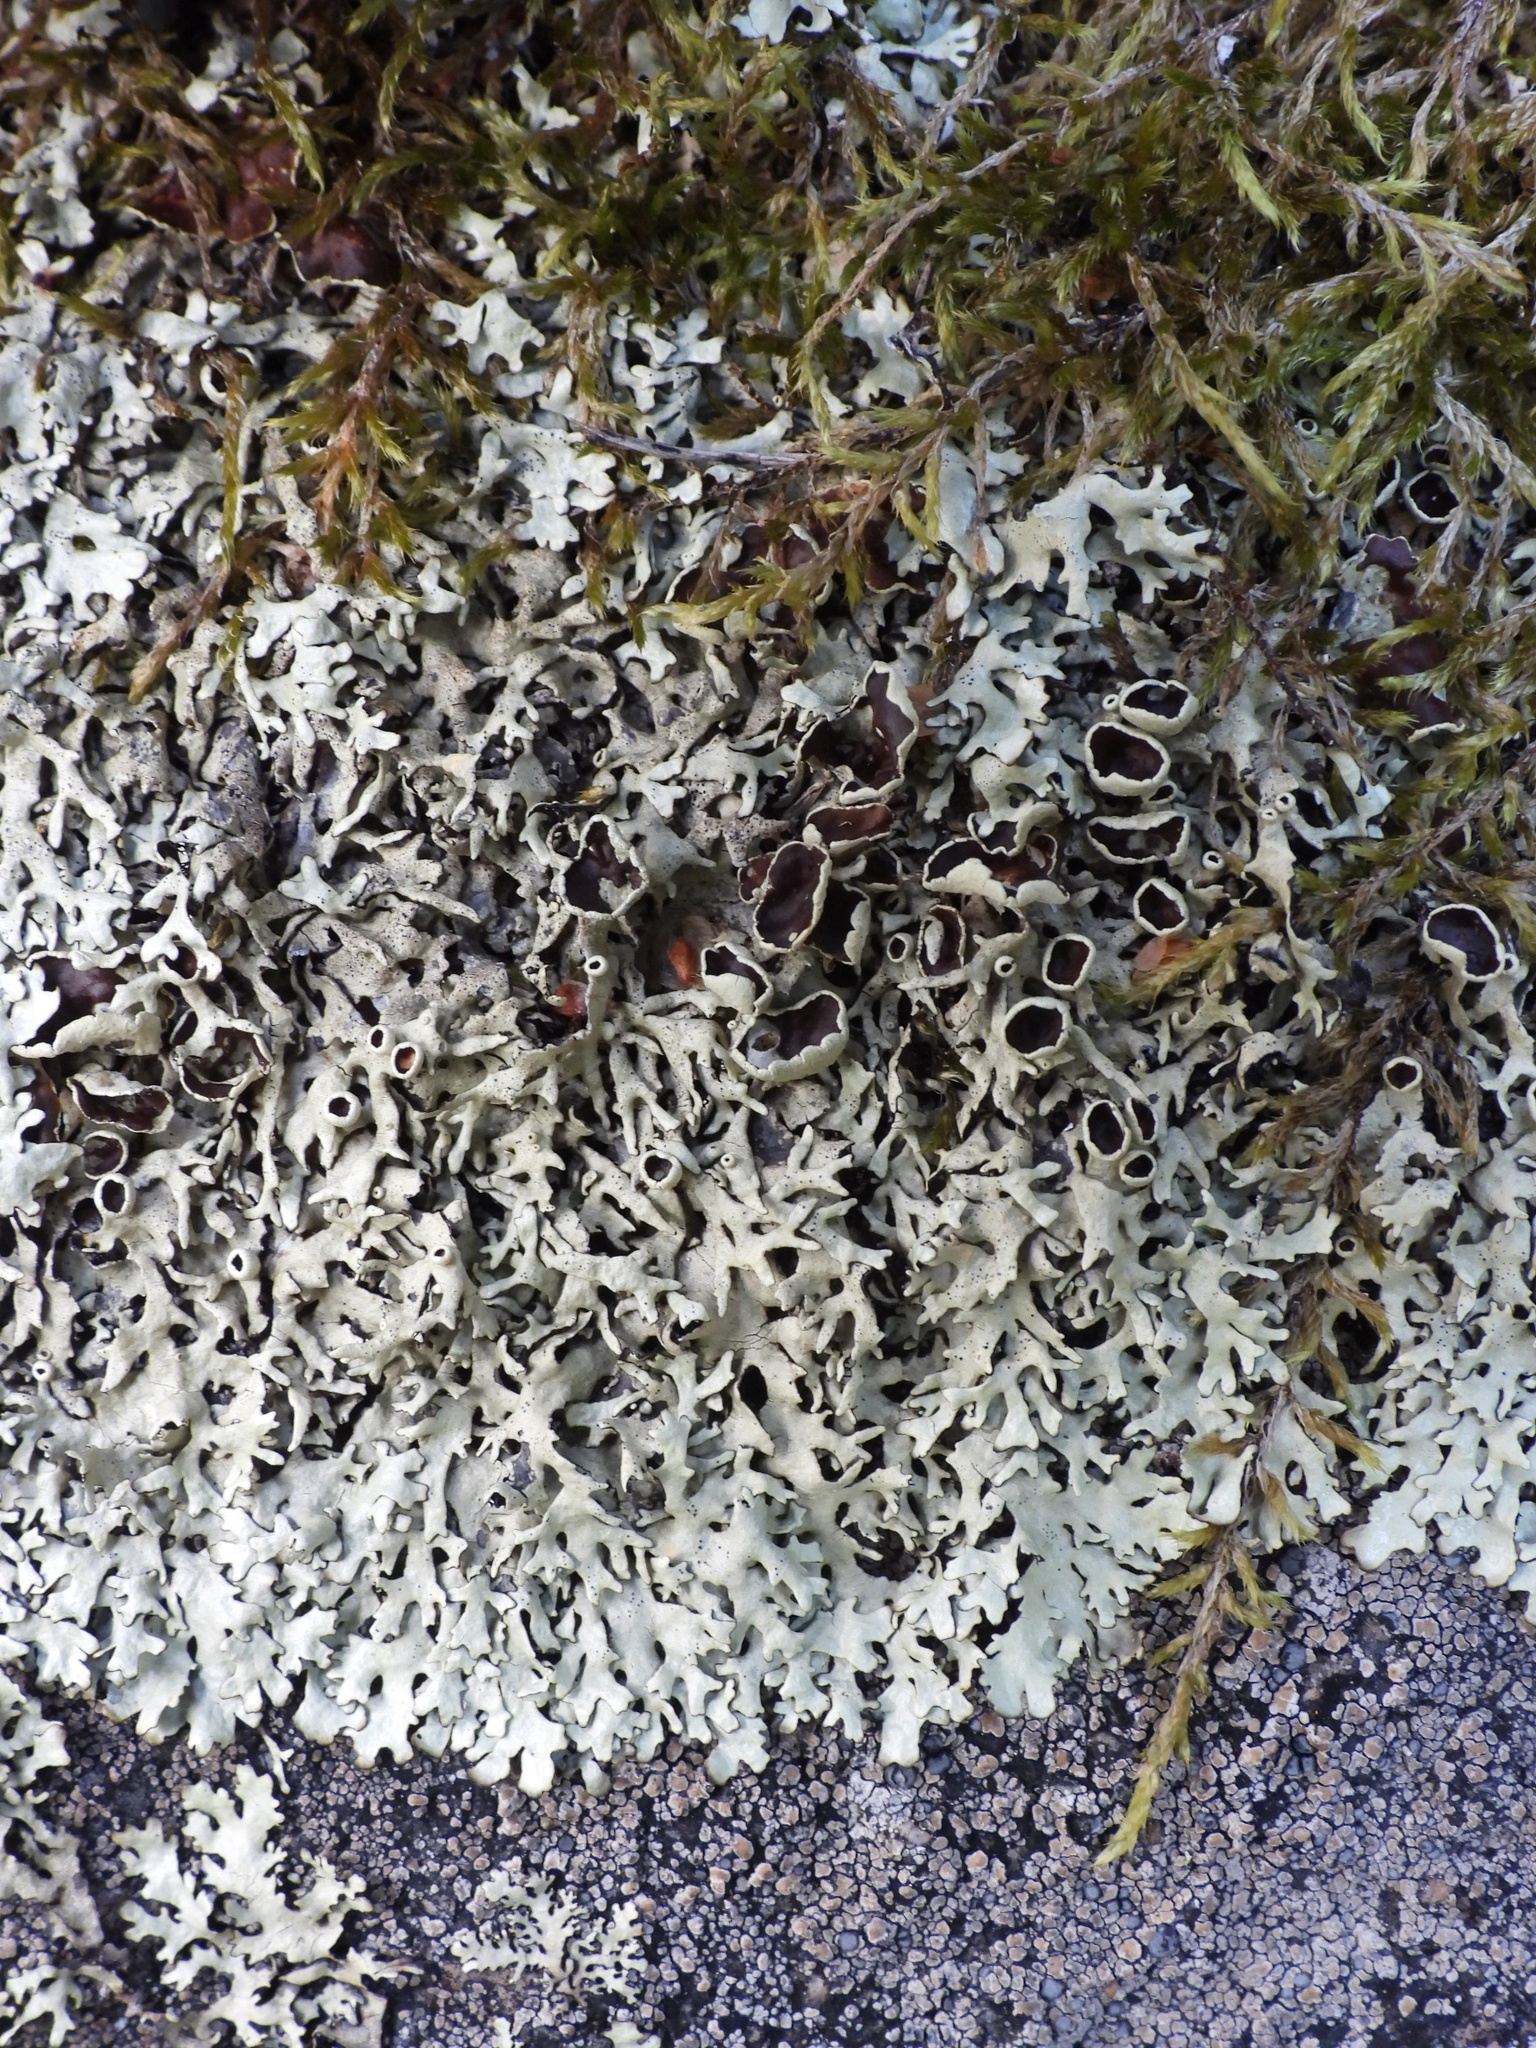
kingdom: Fungi
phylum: Ascomycota
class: Lecanoromycetes
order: Lecanorales
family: Parmeliaceae
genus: Xanthoparmelia
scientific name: Xanthoparmelia stenophylla
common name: Shingled rock shield
